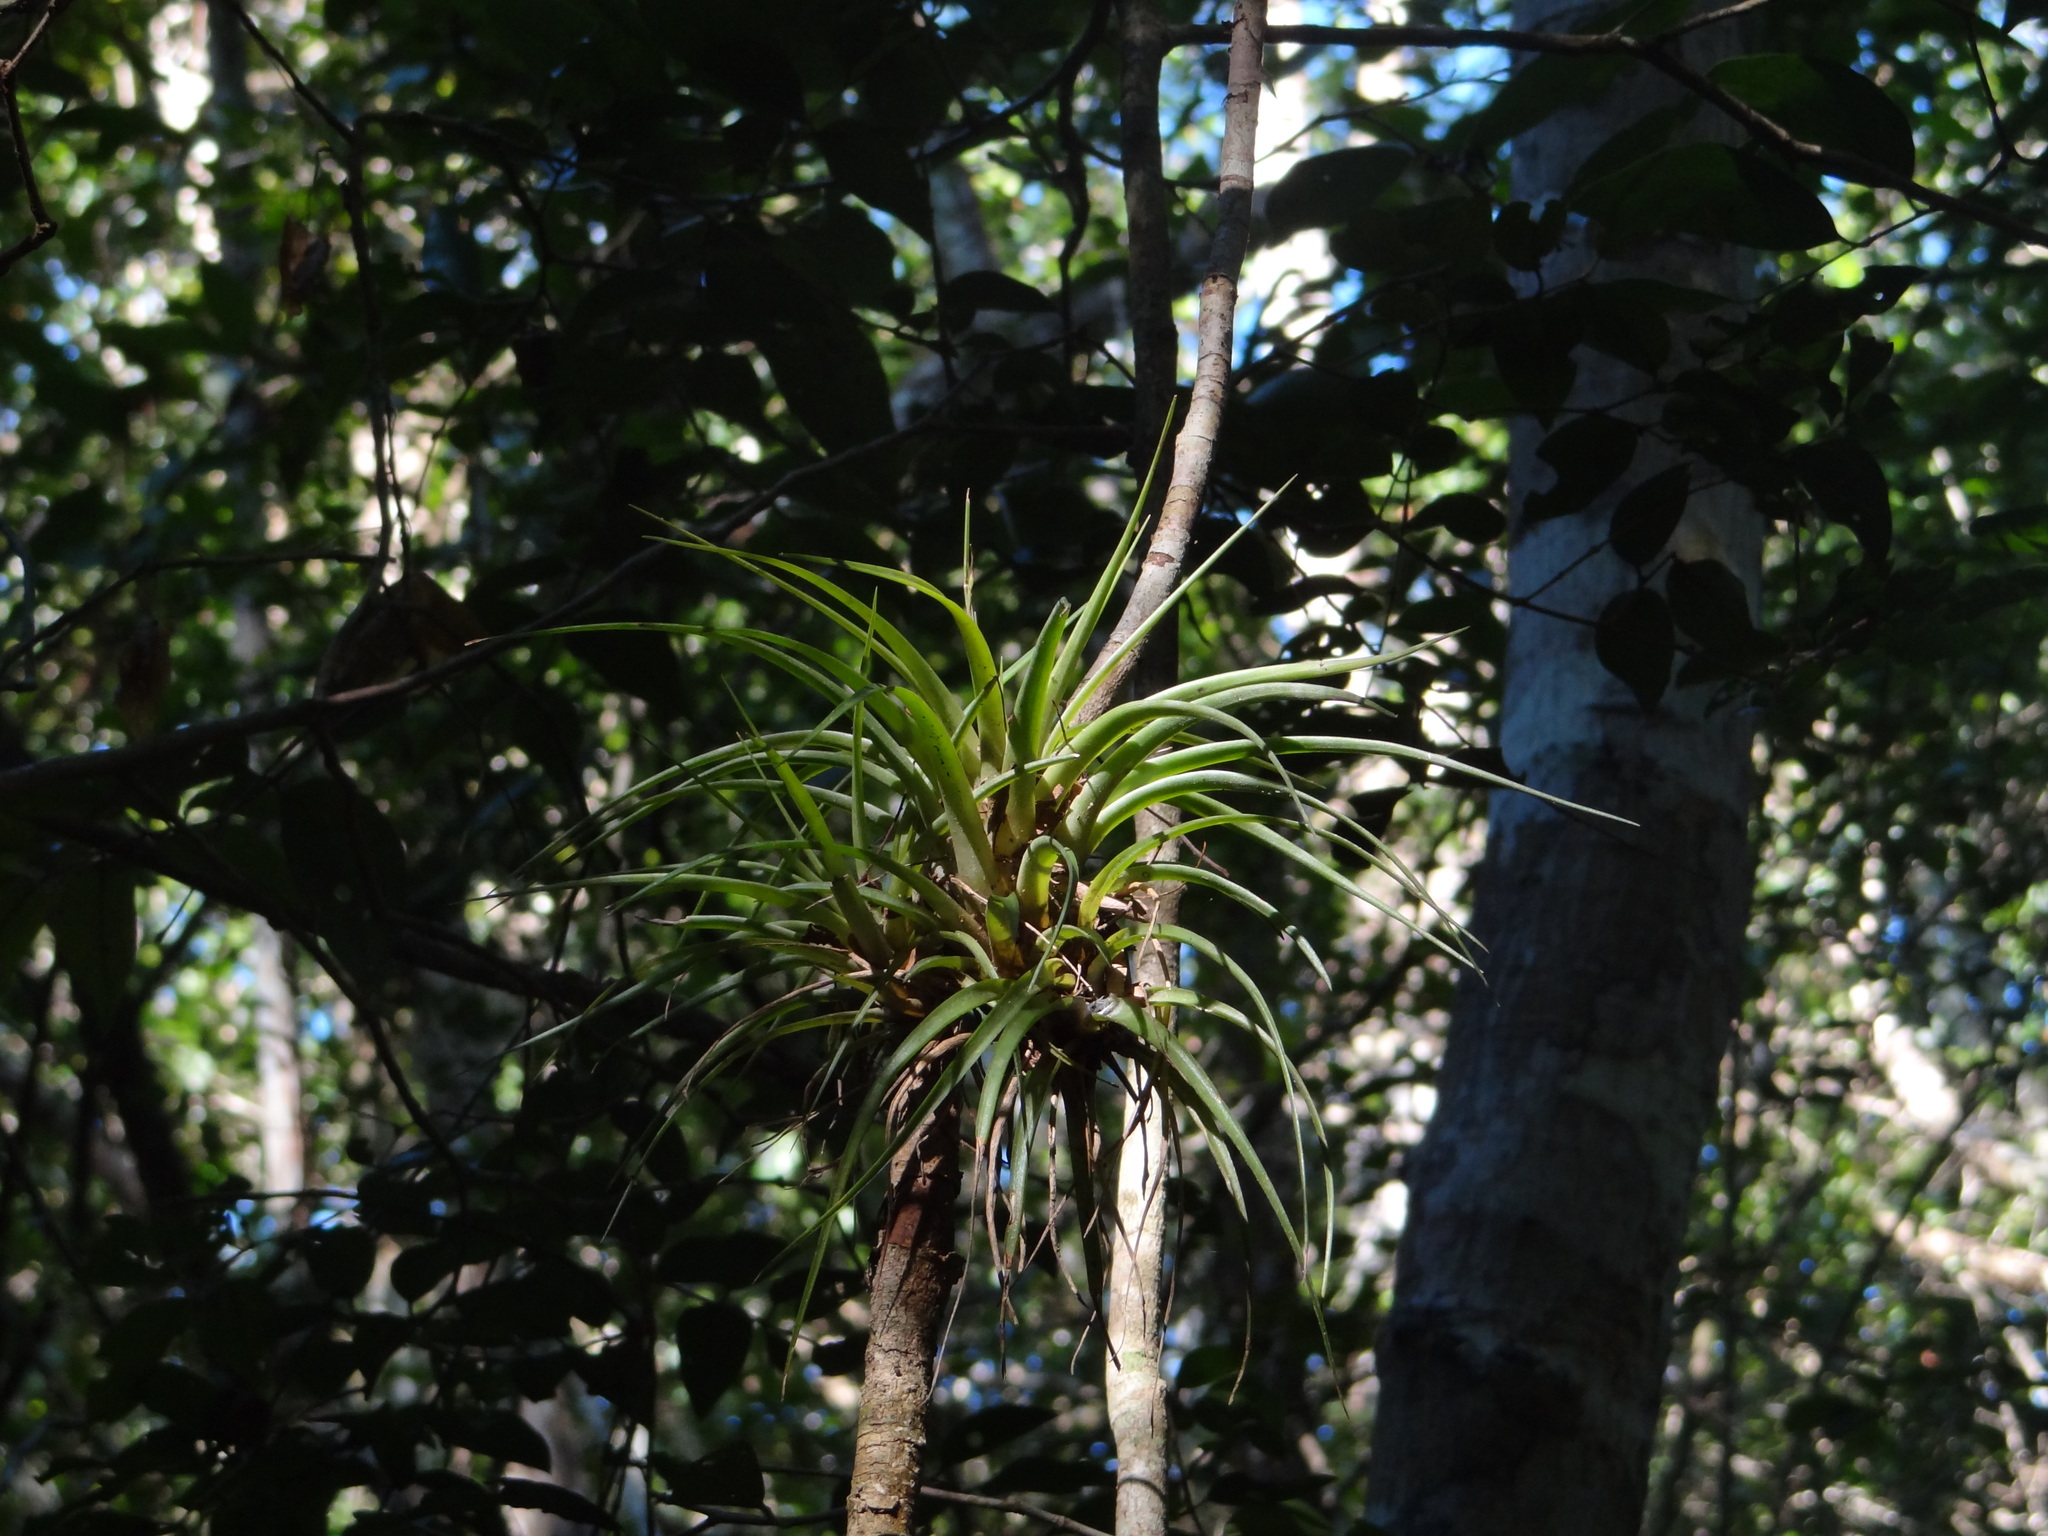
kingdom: Plantae
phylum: Tracheophyta
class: Liliopsida
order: Poales
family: Bromeliaceae
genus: Tillandsia
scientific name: Tillandsia fasciculata
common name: Giant airplant
